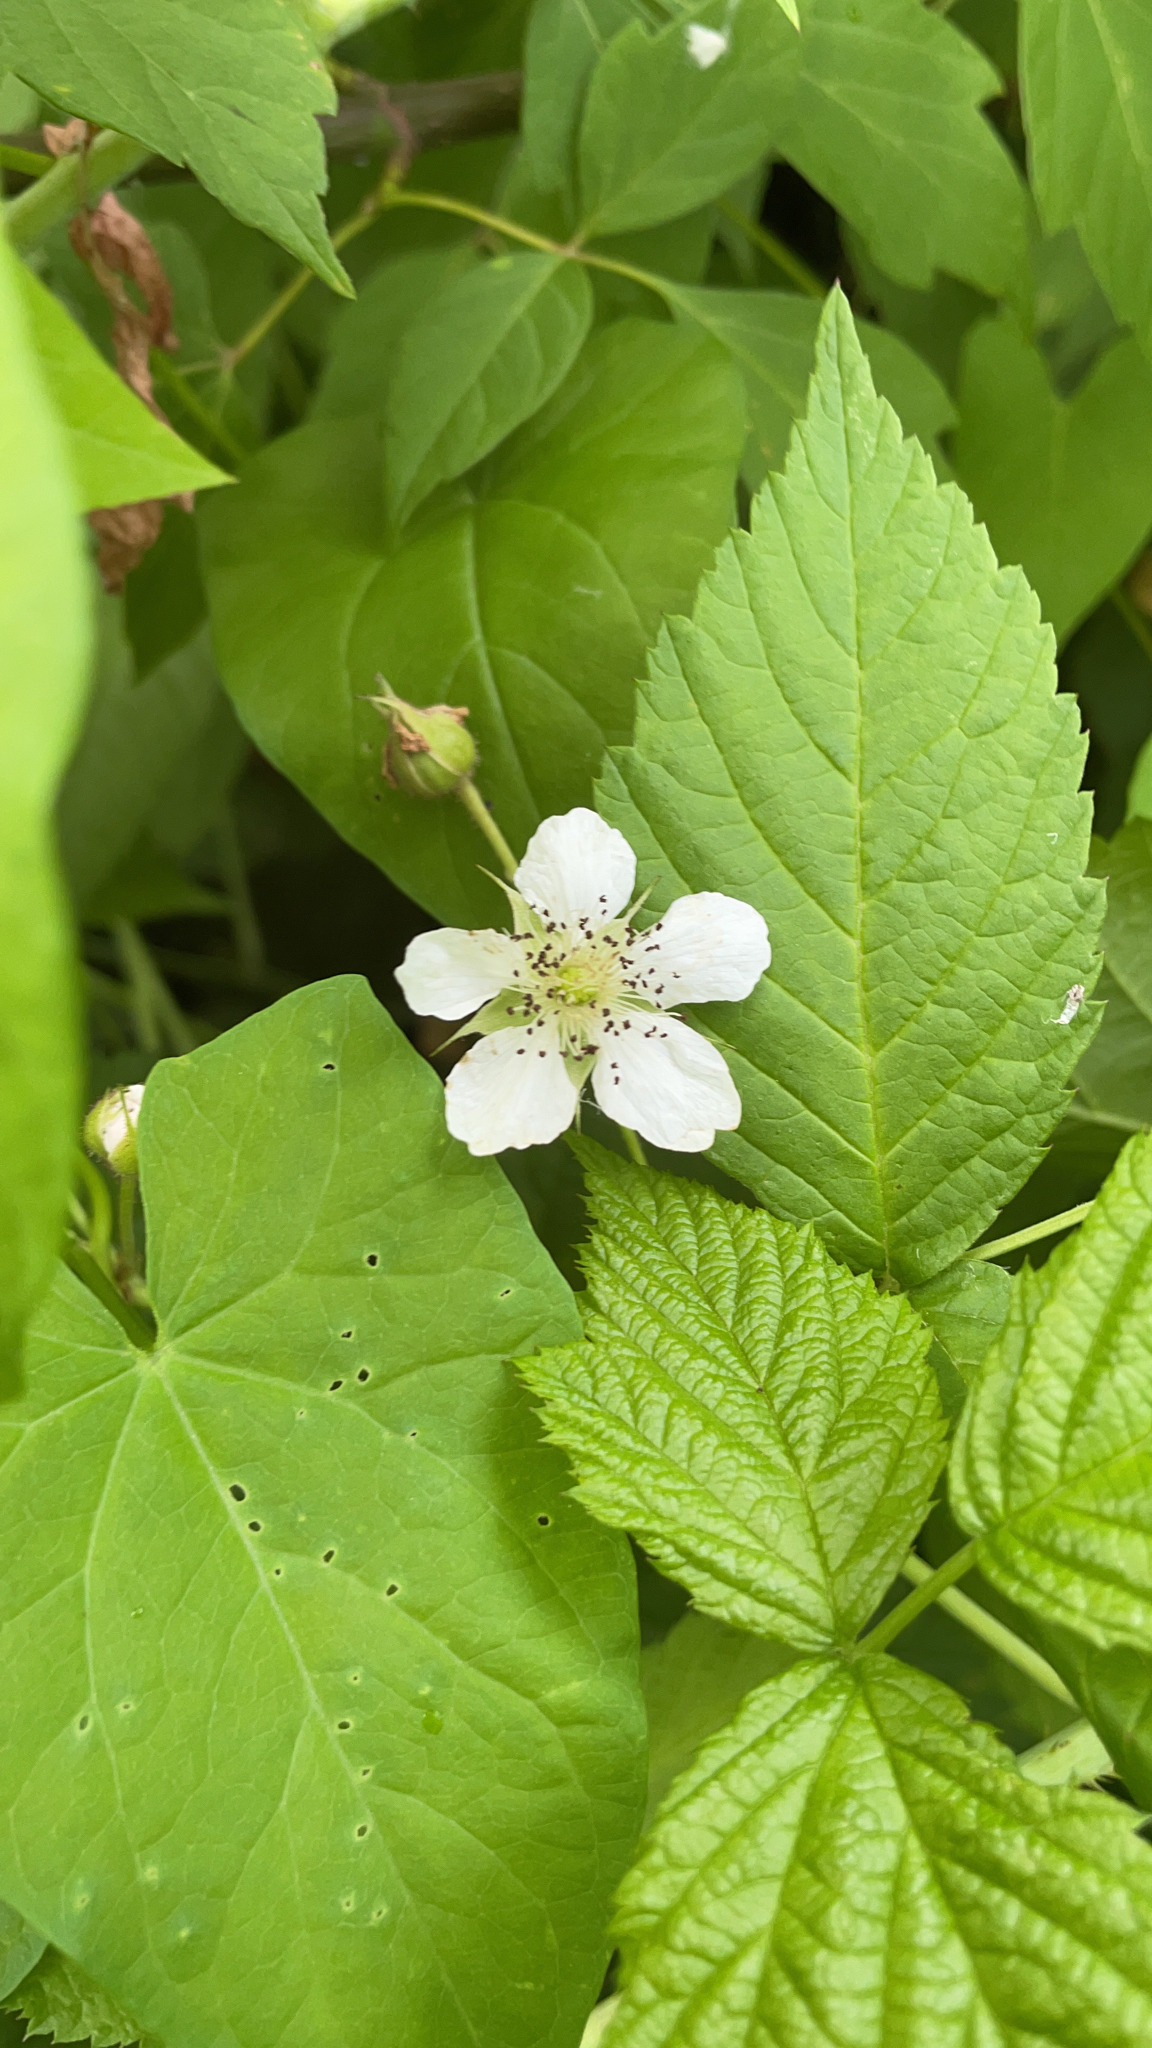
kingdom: Plantae
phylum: Tracheophyta
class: Magnoliopsida
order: Rosales
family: Rosaceae
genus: Rubus
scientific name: Rubus caesius
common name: Dewberry
